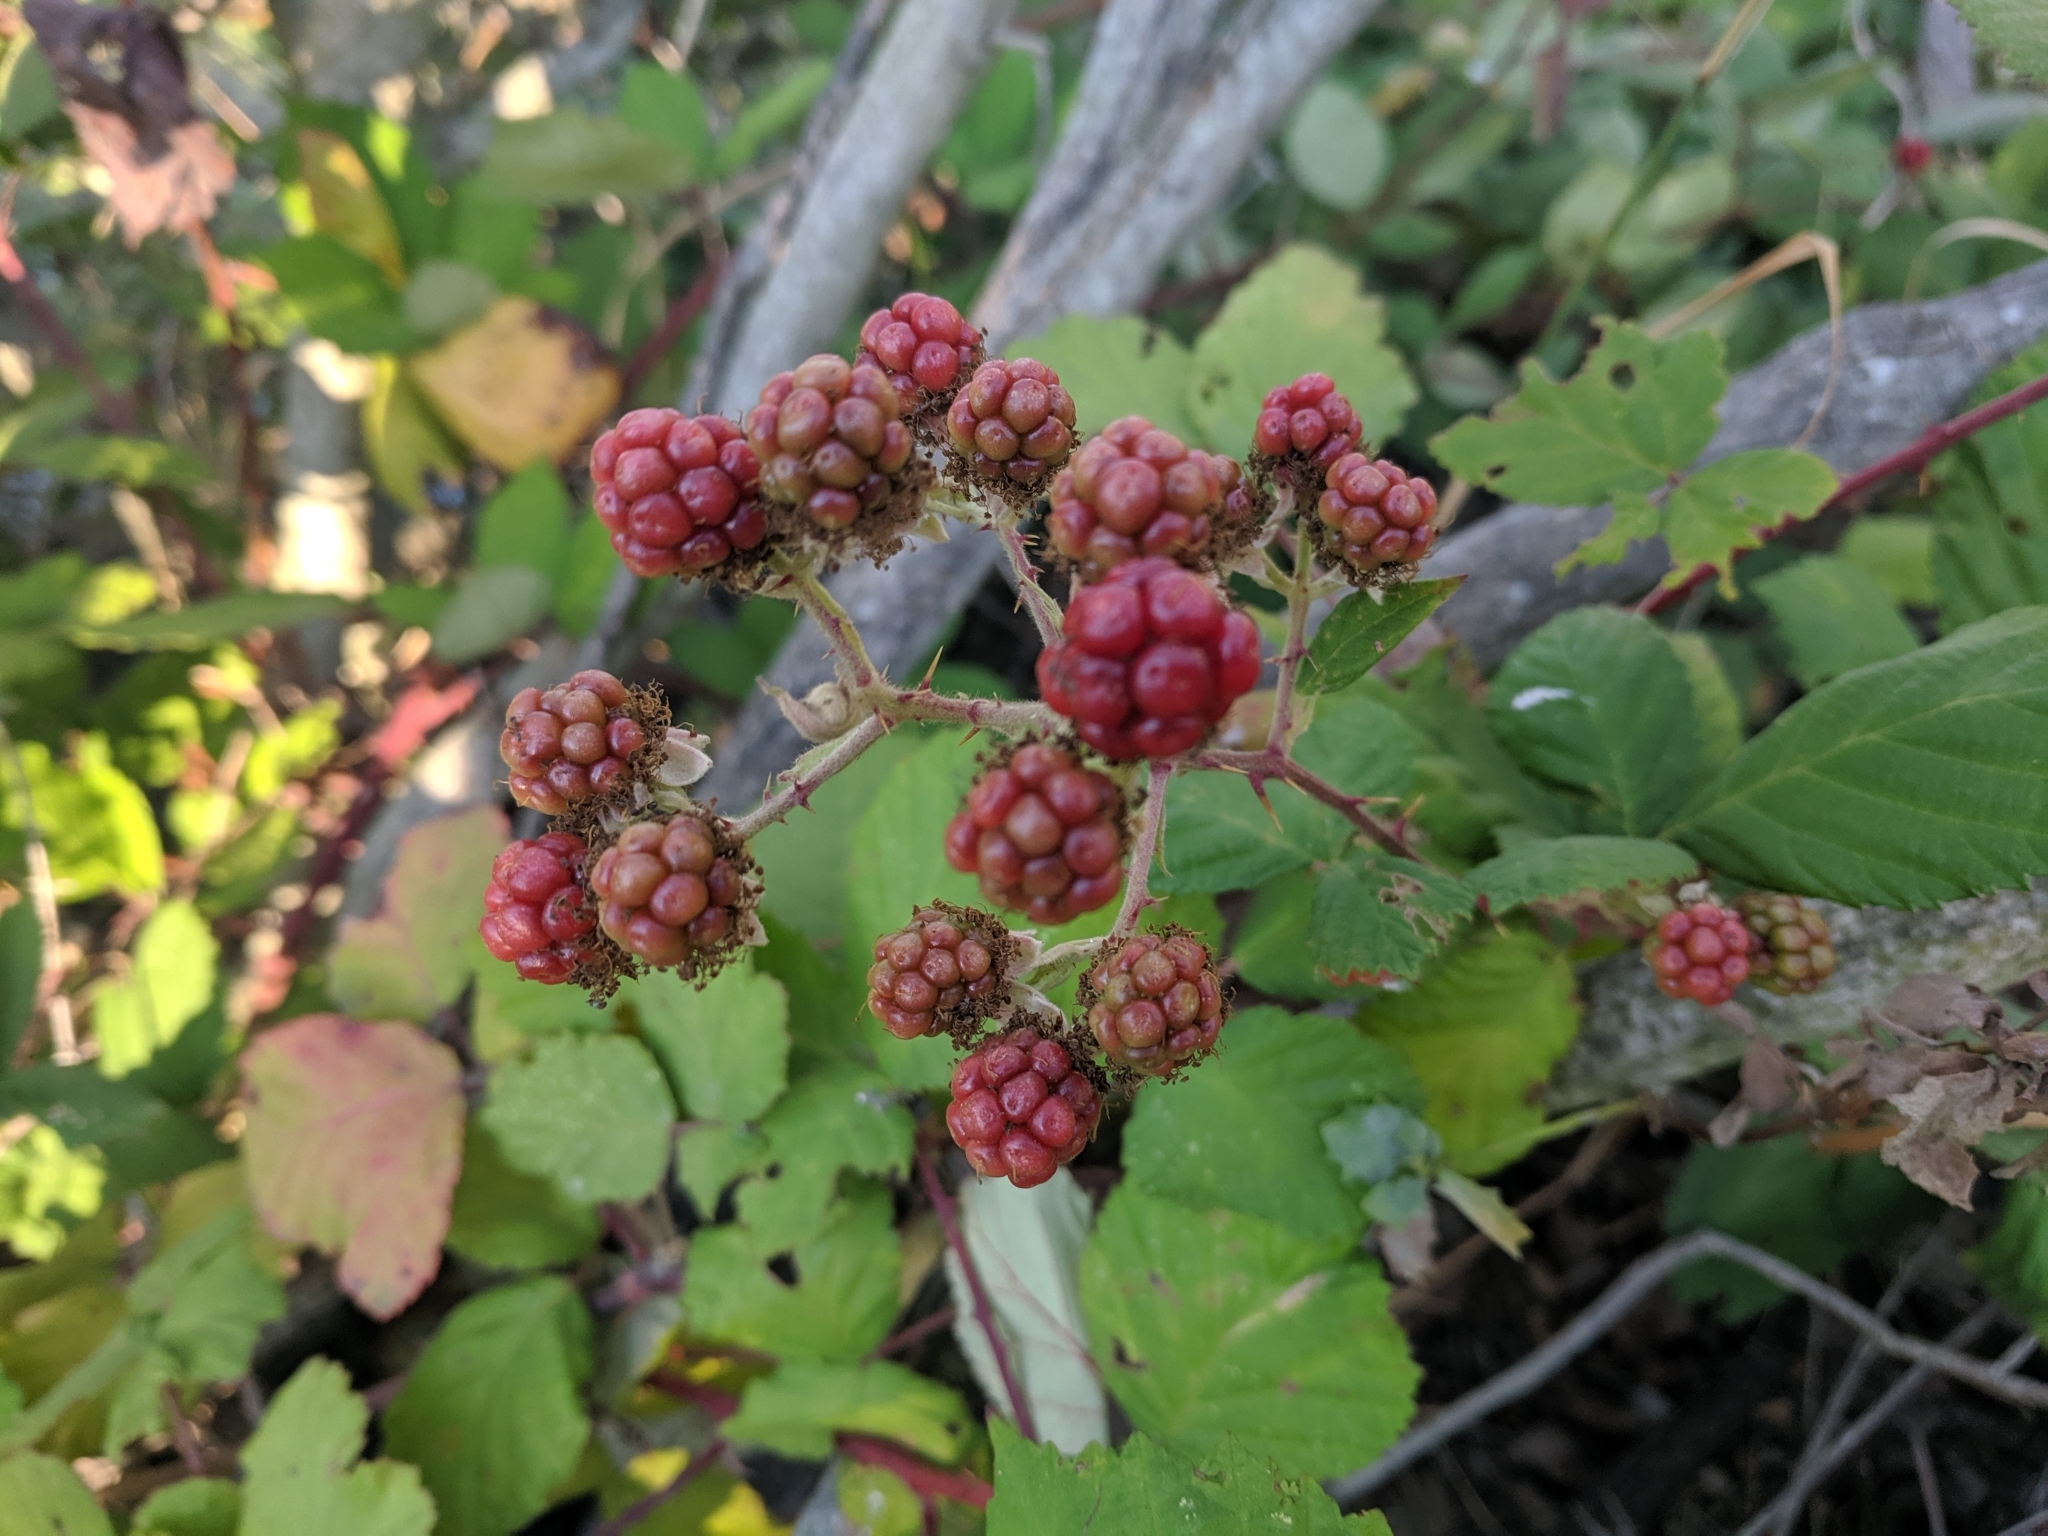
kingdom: Plantae
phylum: Tracheophyta
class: Magnoliopsida
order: Rosales
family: Rosaceae
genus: Rubus
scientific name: Rubus armeniacus
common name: Himalayan blackberry
